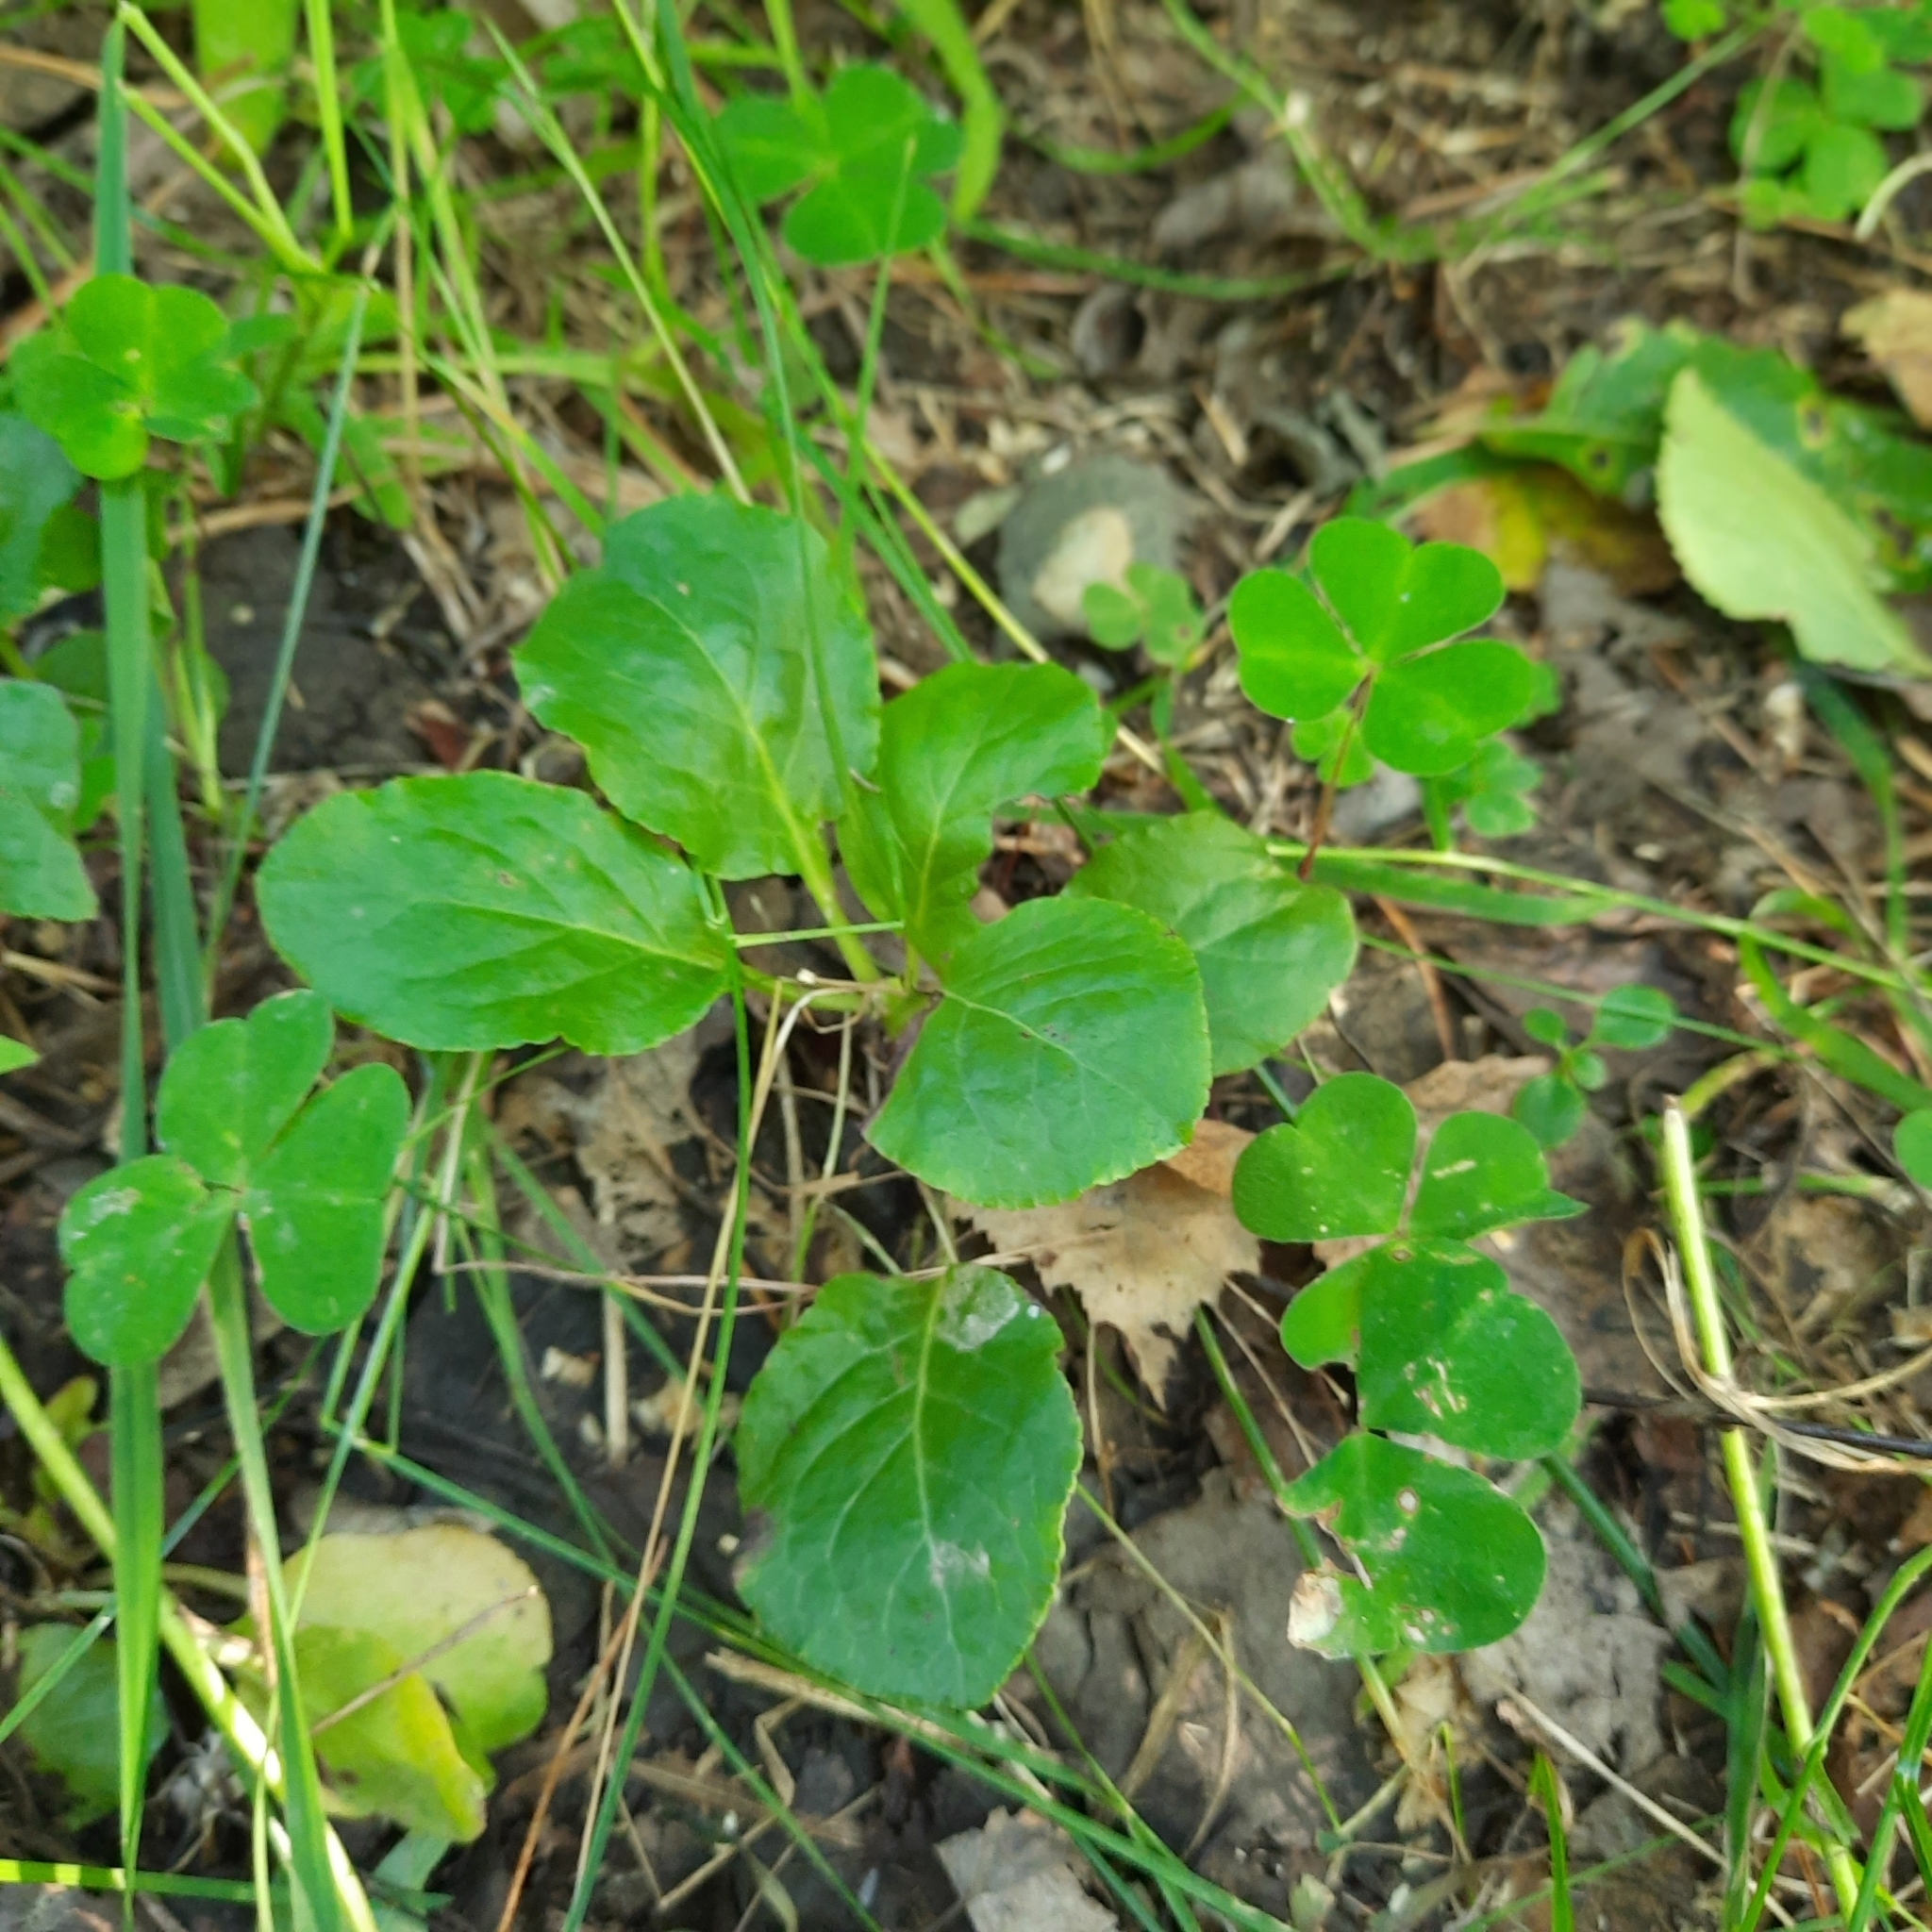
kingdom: Plantae
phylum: Tracheophyta
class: Magnoliopsida
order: Ericales
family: Ericaceae
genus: Pyrola
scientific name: Pyrola minor
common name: Common wintergreen
